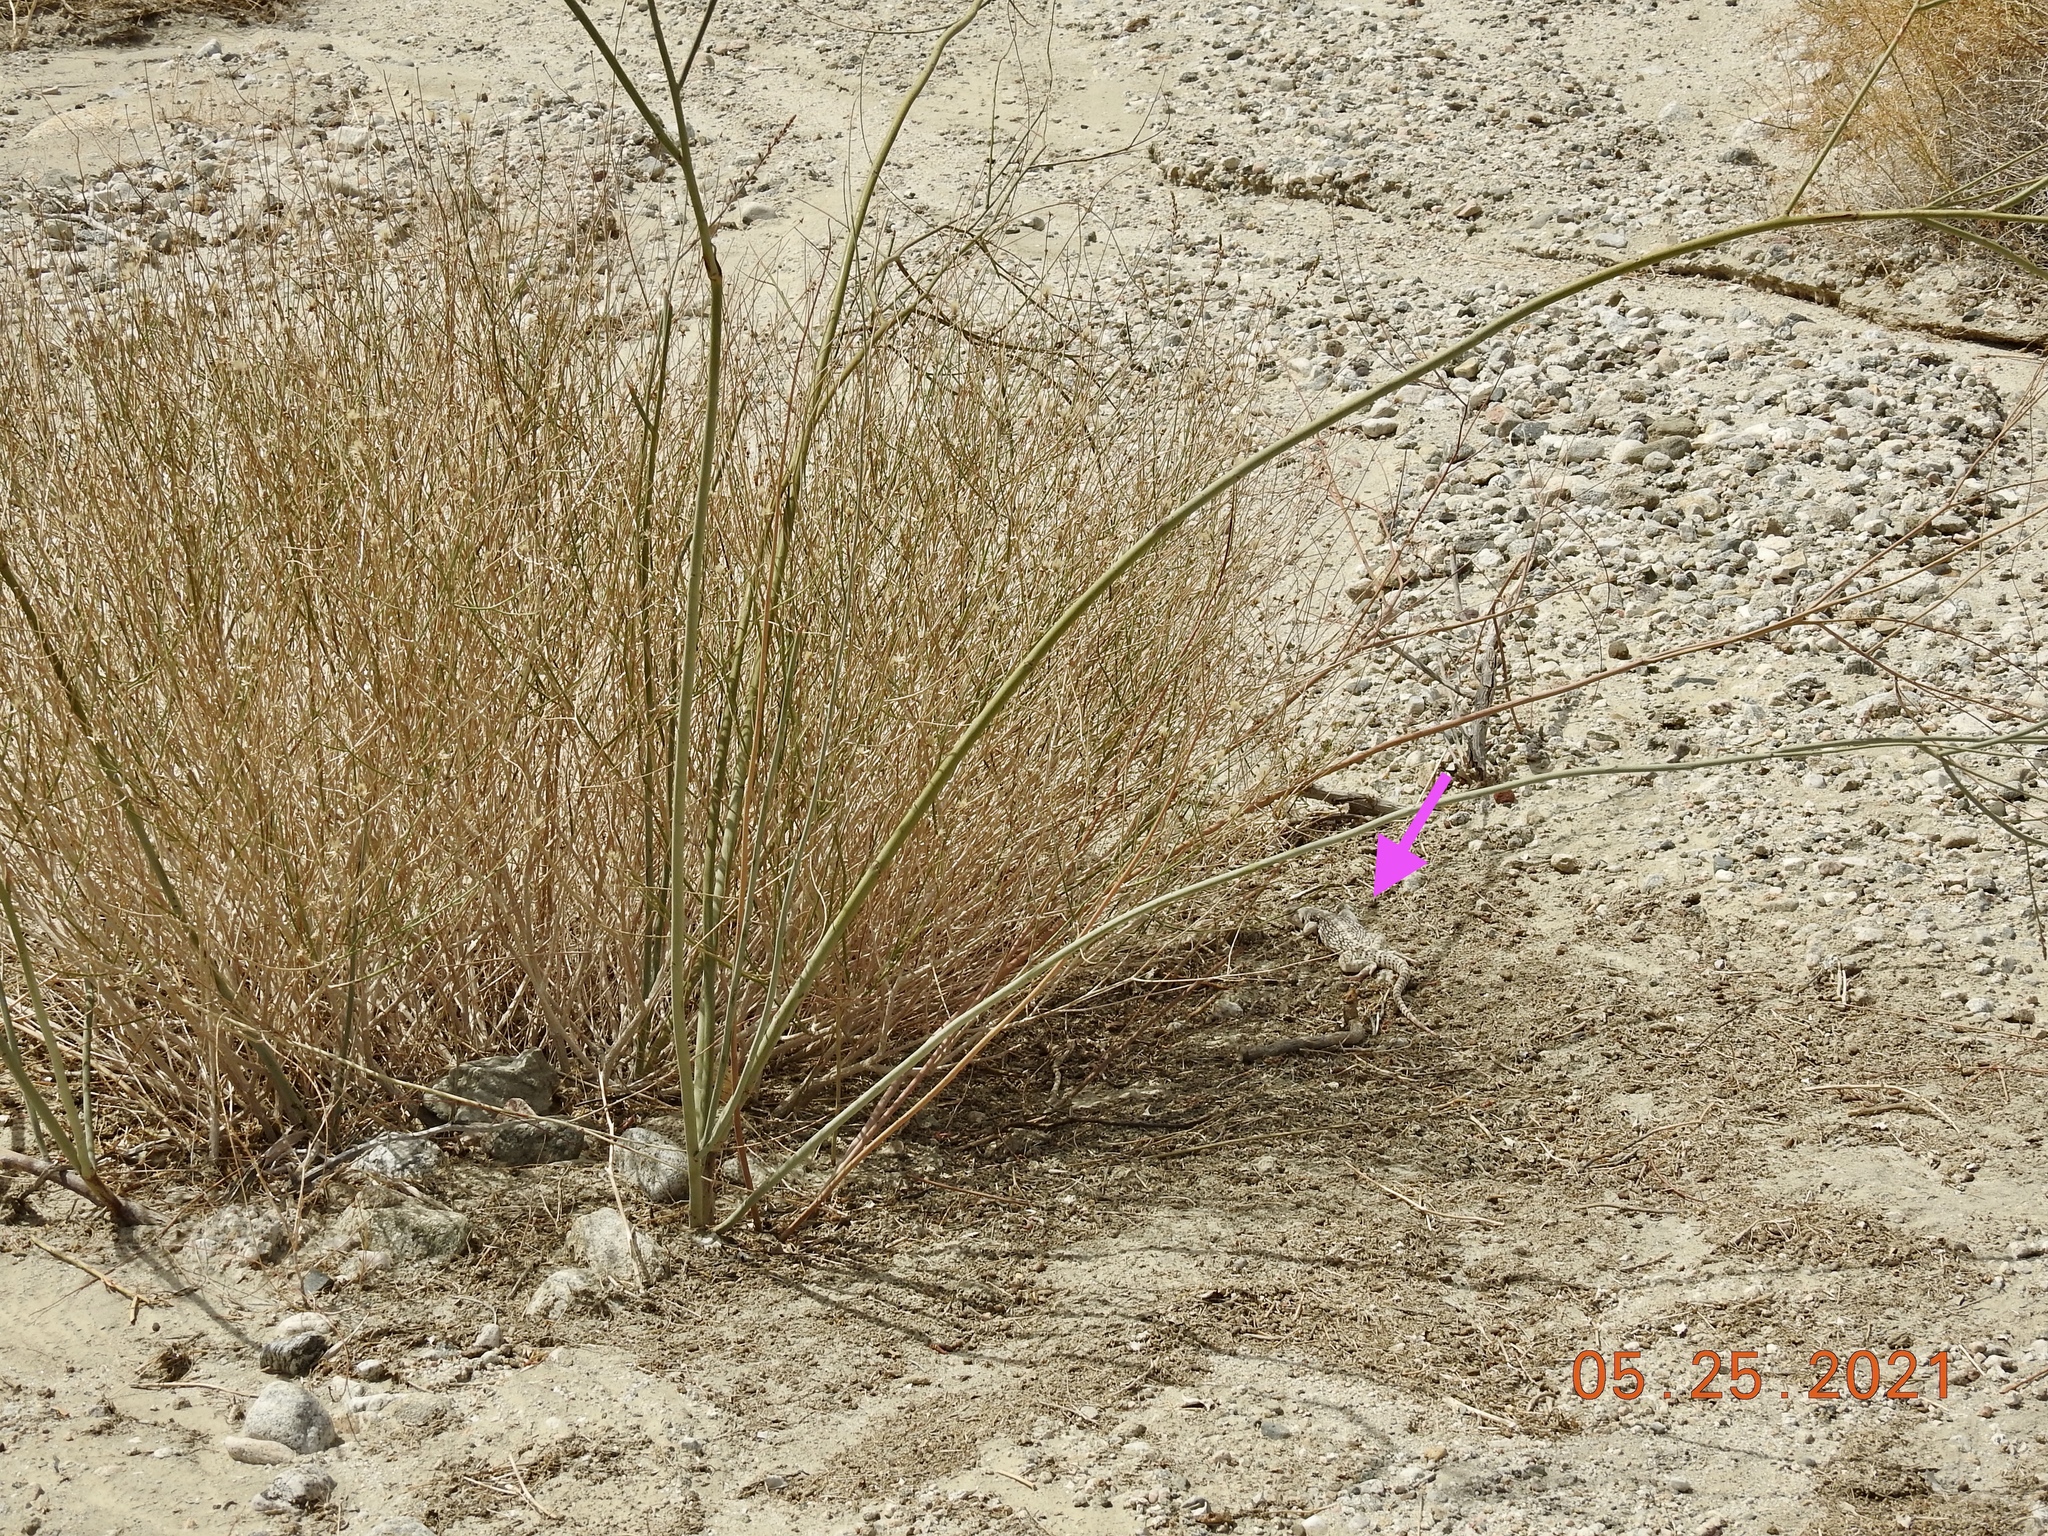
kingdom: Animalia
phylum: Chordata
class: Squamata
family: Iguanidae
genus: Dipsosaurus
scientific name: Dipsosaurus dorsalis
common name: Desert iguana
